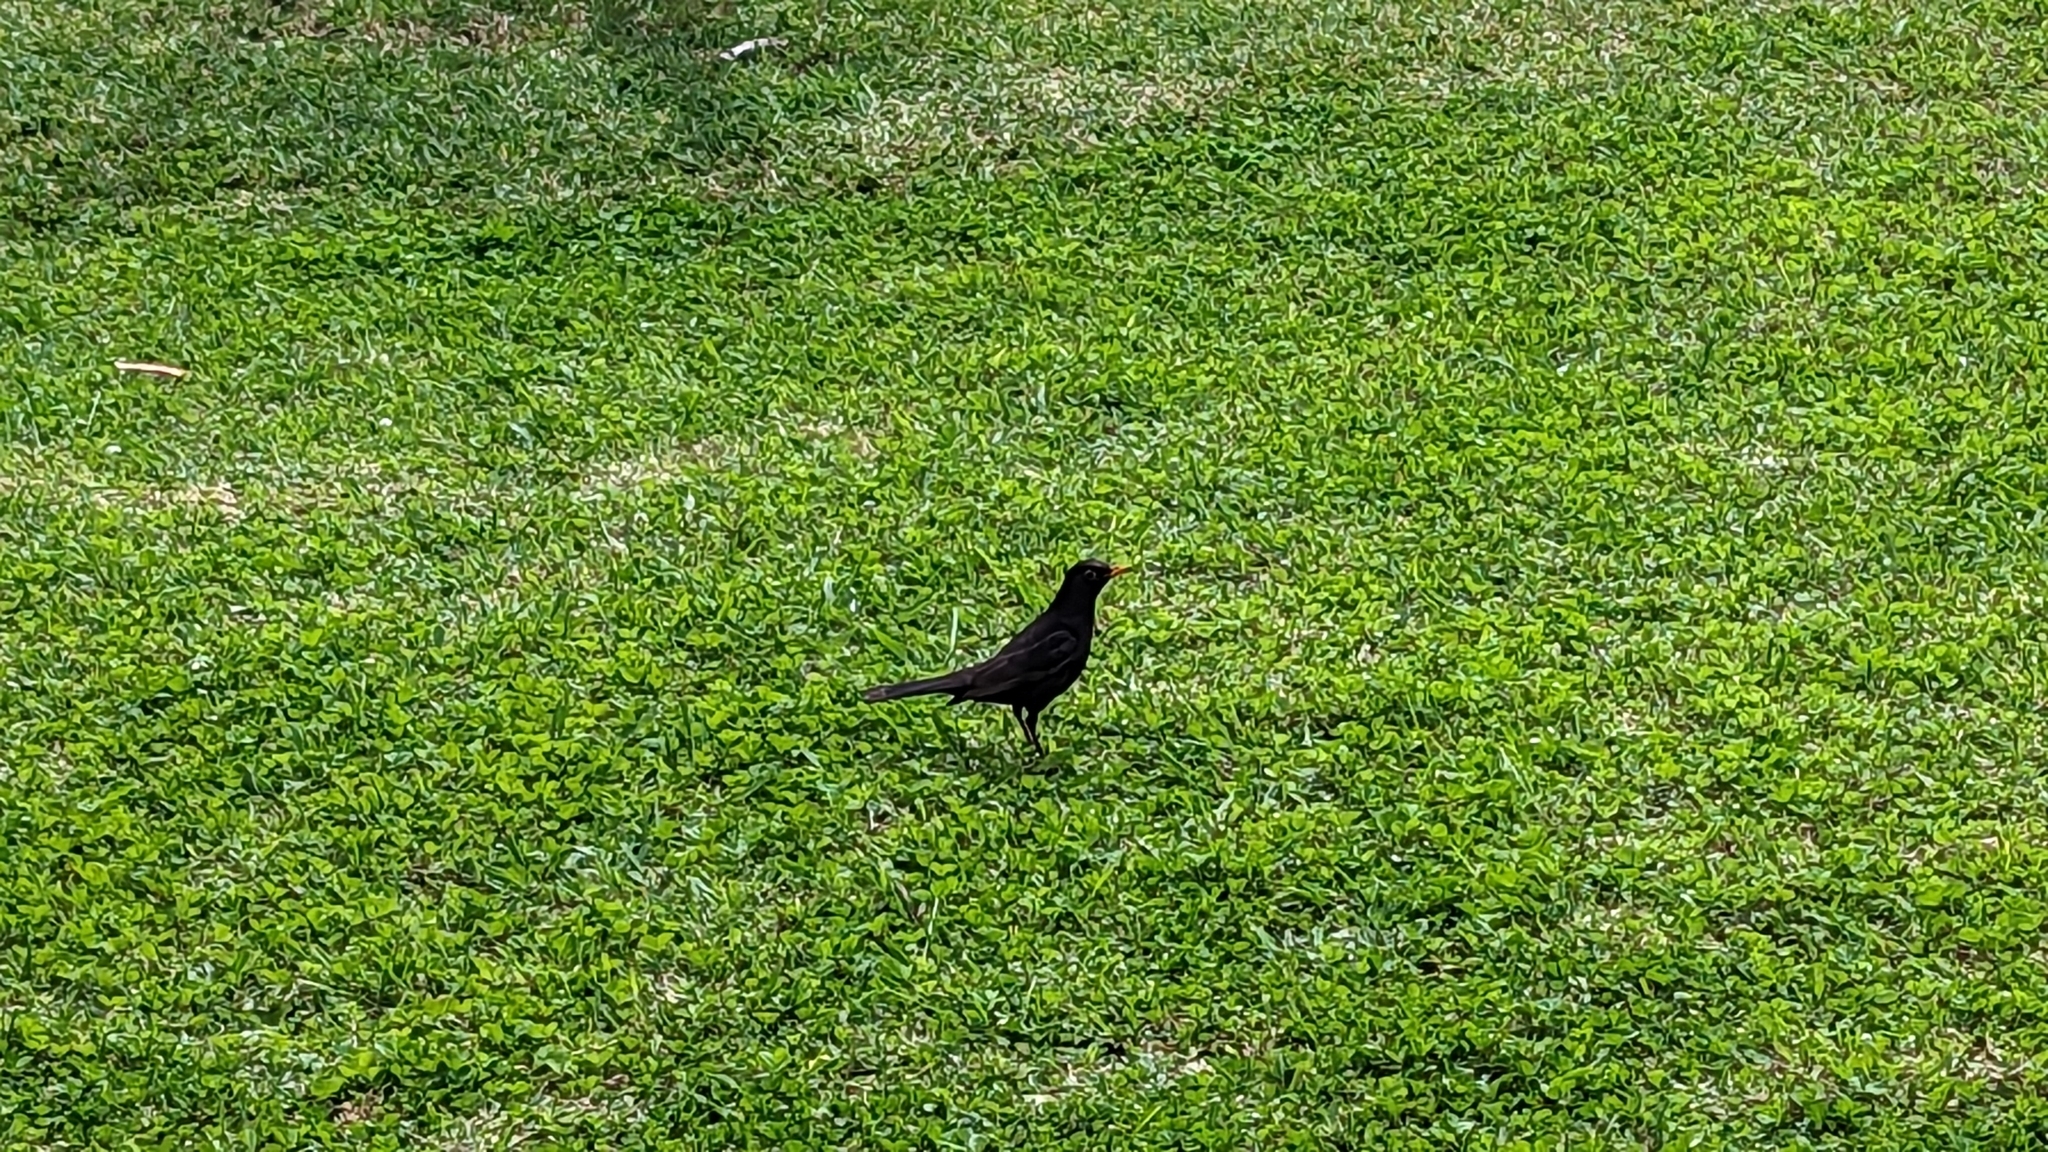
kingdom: Animalia
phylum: Chordata
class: Aves
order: Passeriformes
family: Turdidae
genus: Turdus
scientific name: Turdus merula
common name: Common blackbird
